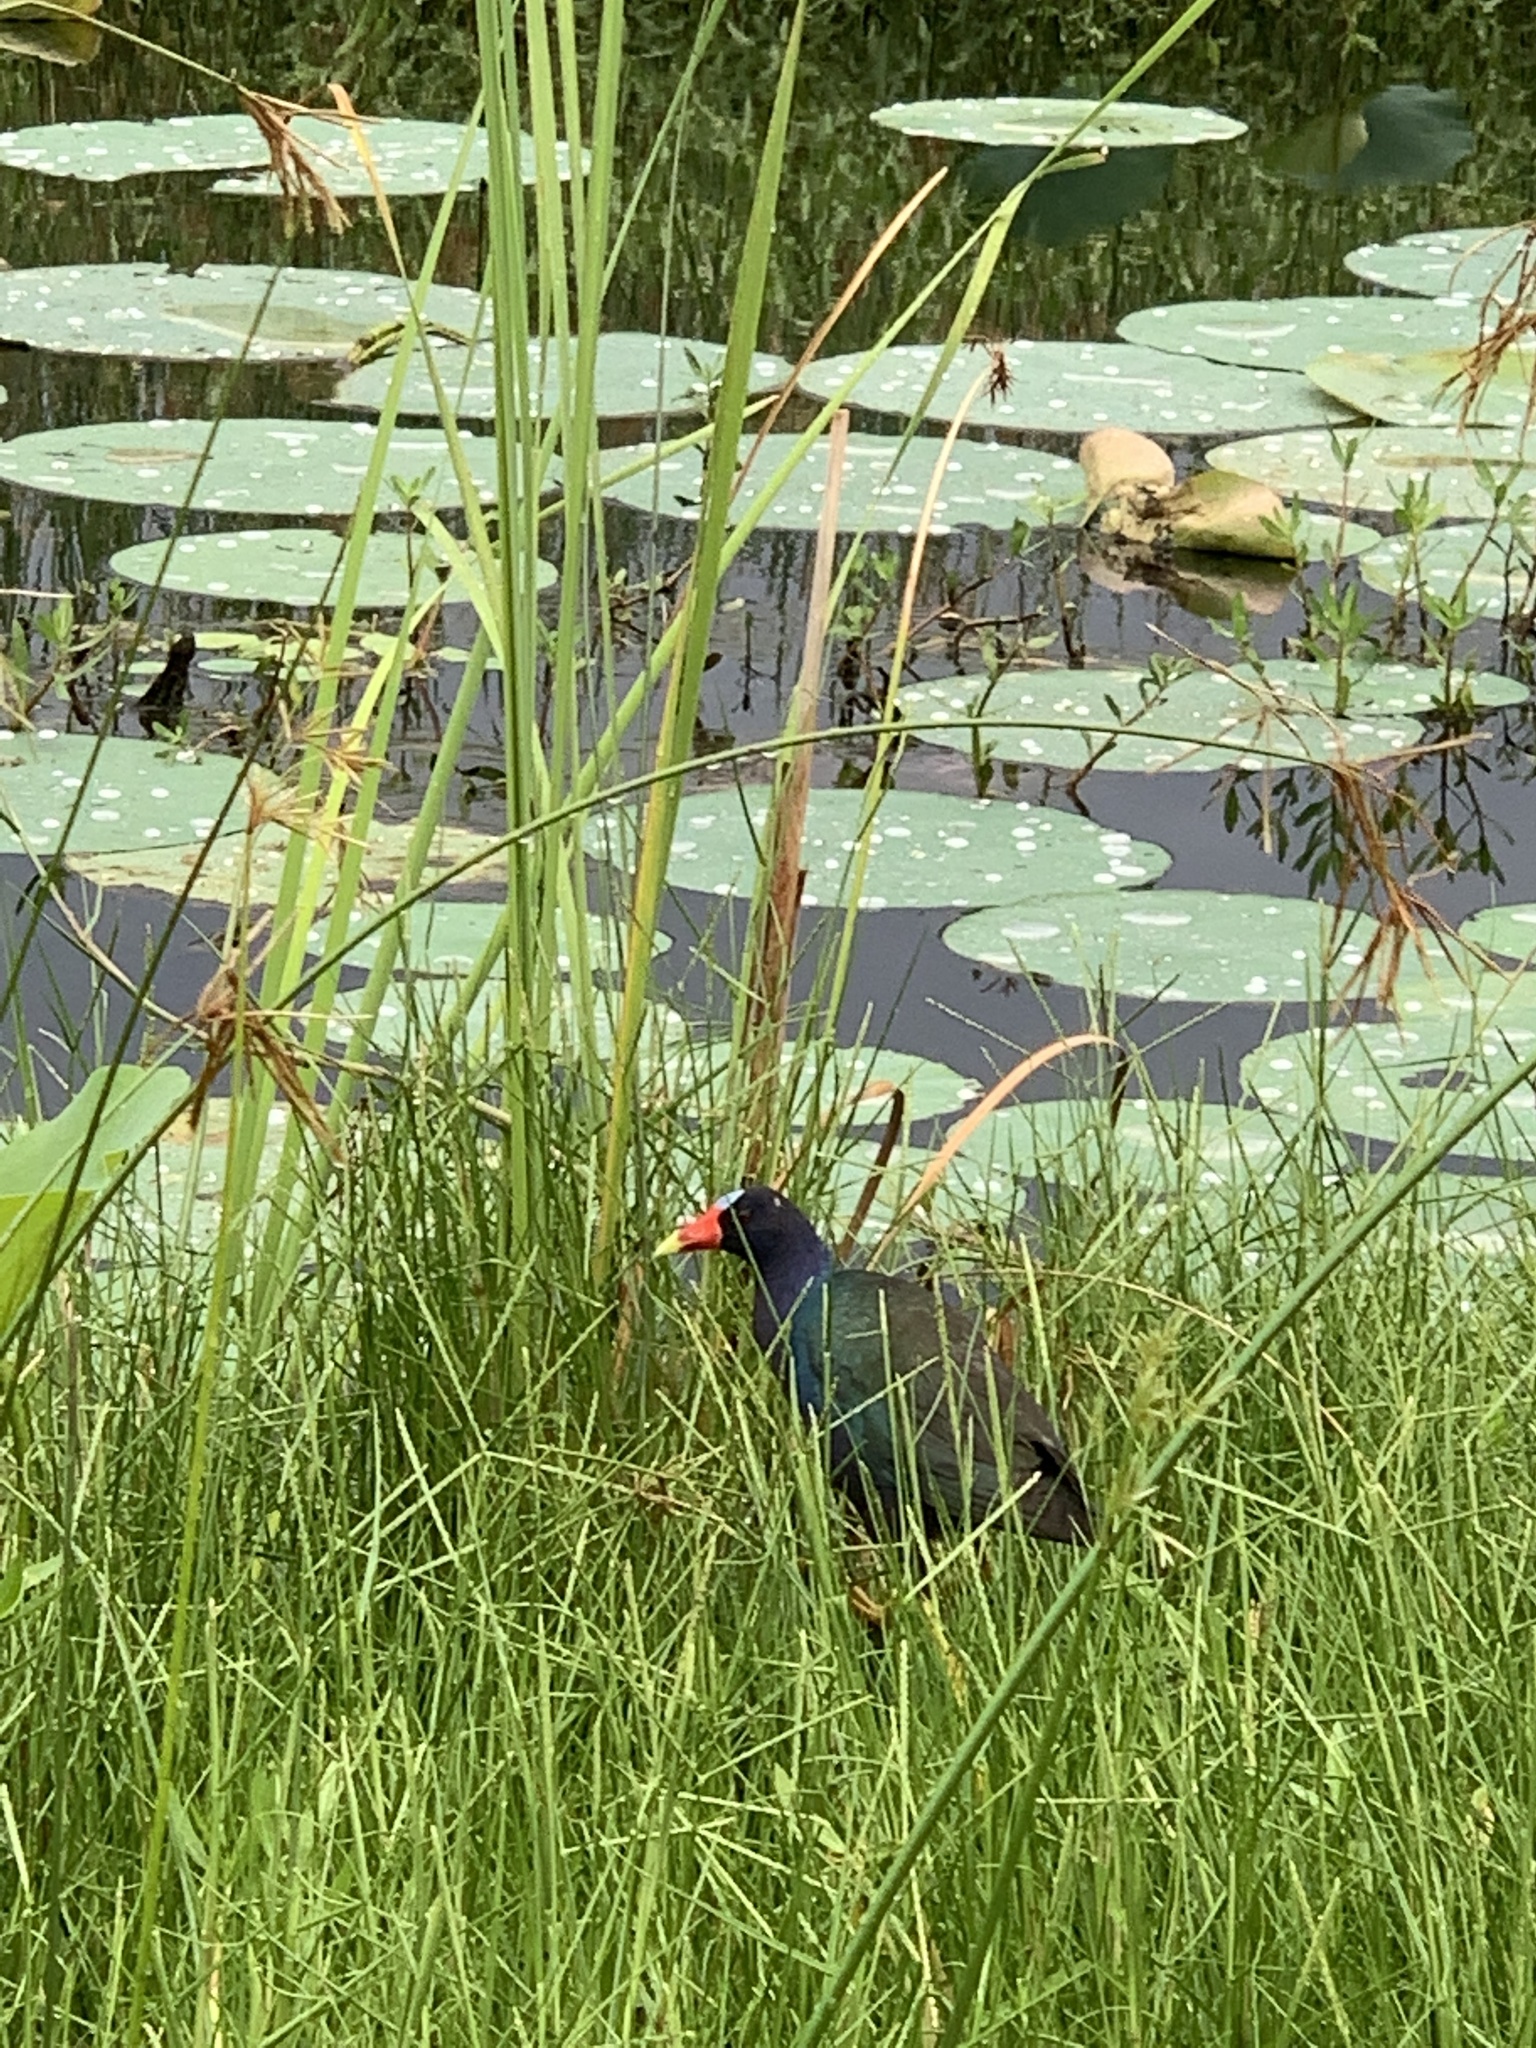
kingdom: Animalia
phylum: Chordata
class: Aves
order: Gruiformes
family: Rallidae
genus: Porphyrio
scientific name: Porphyrio martinica
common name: Purple gallinule
